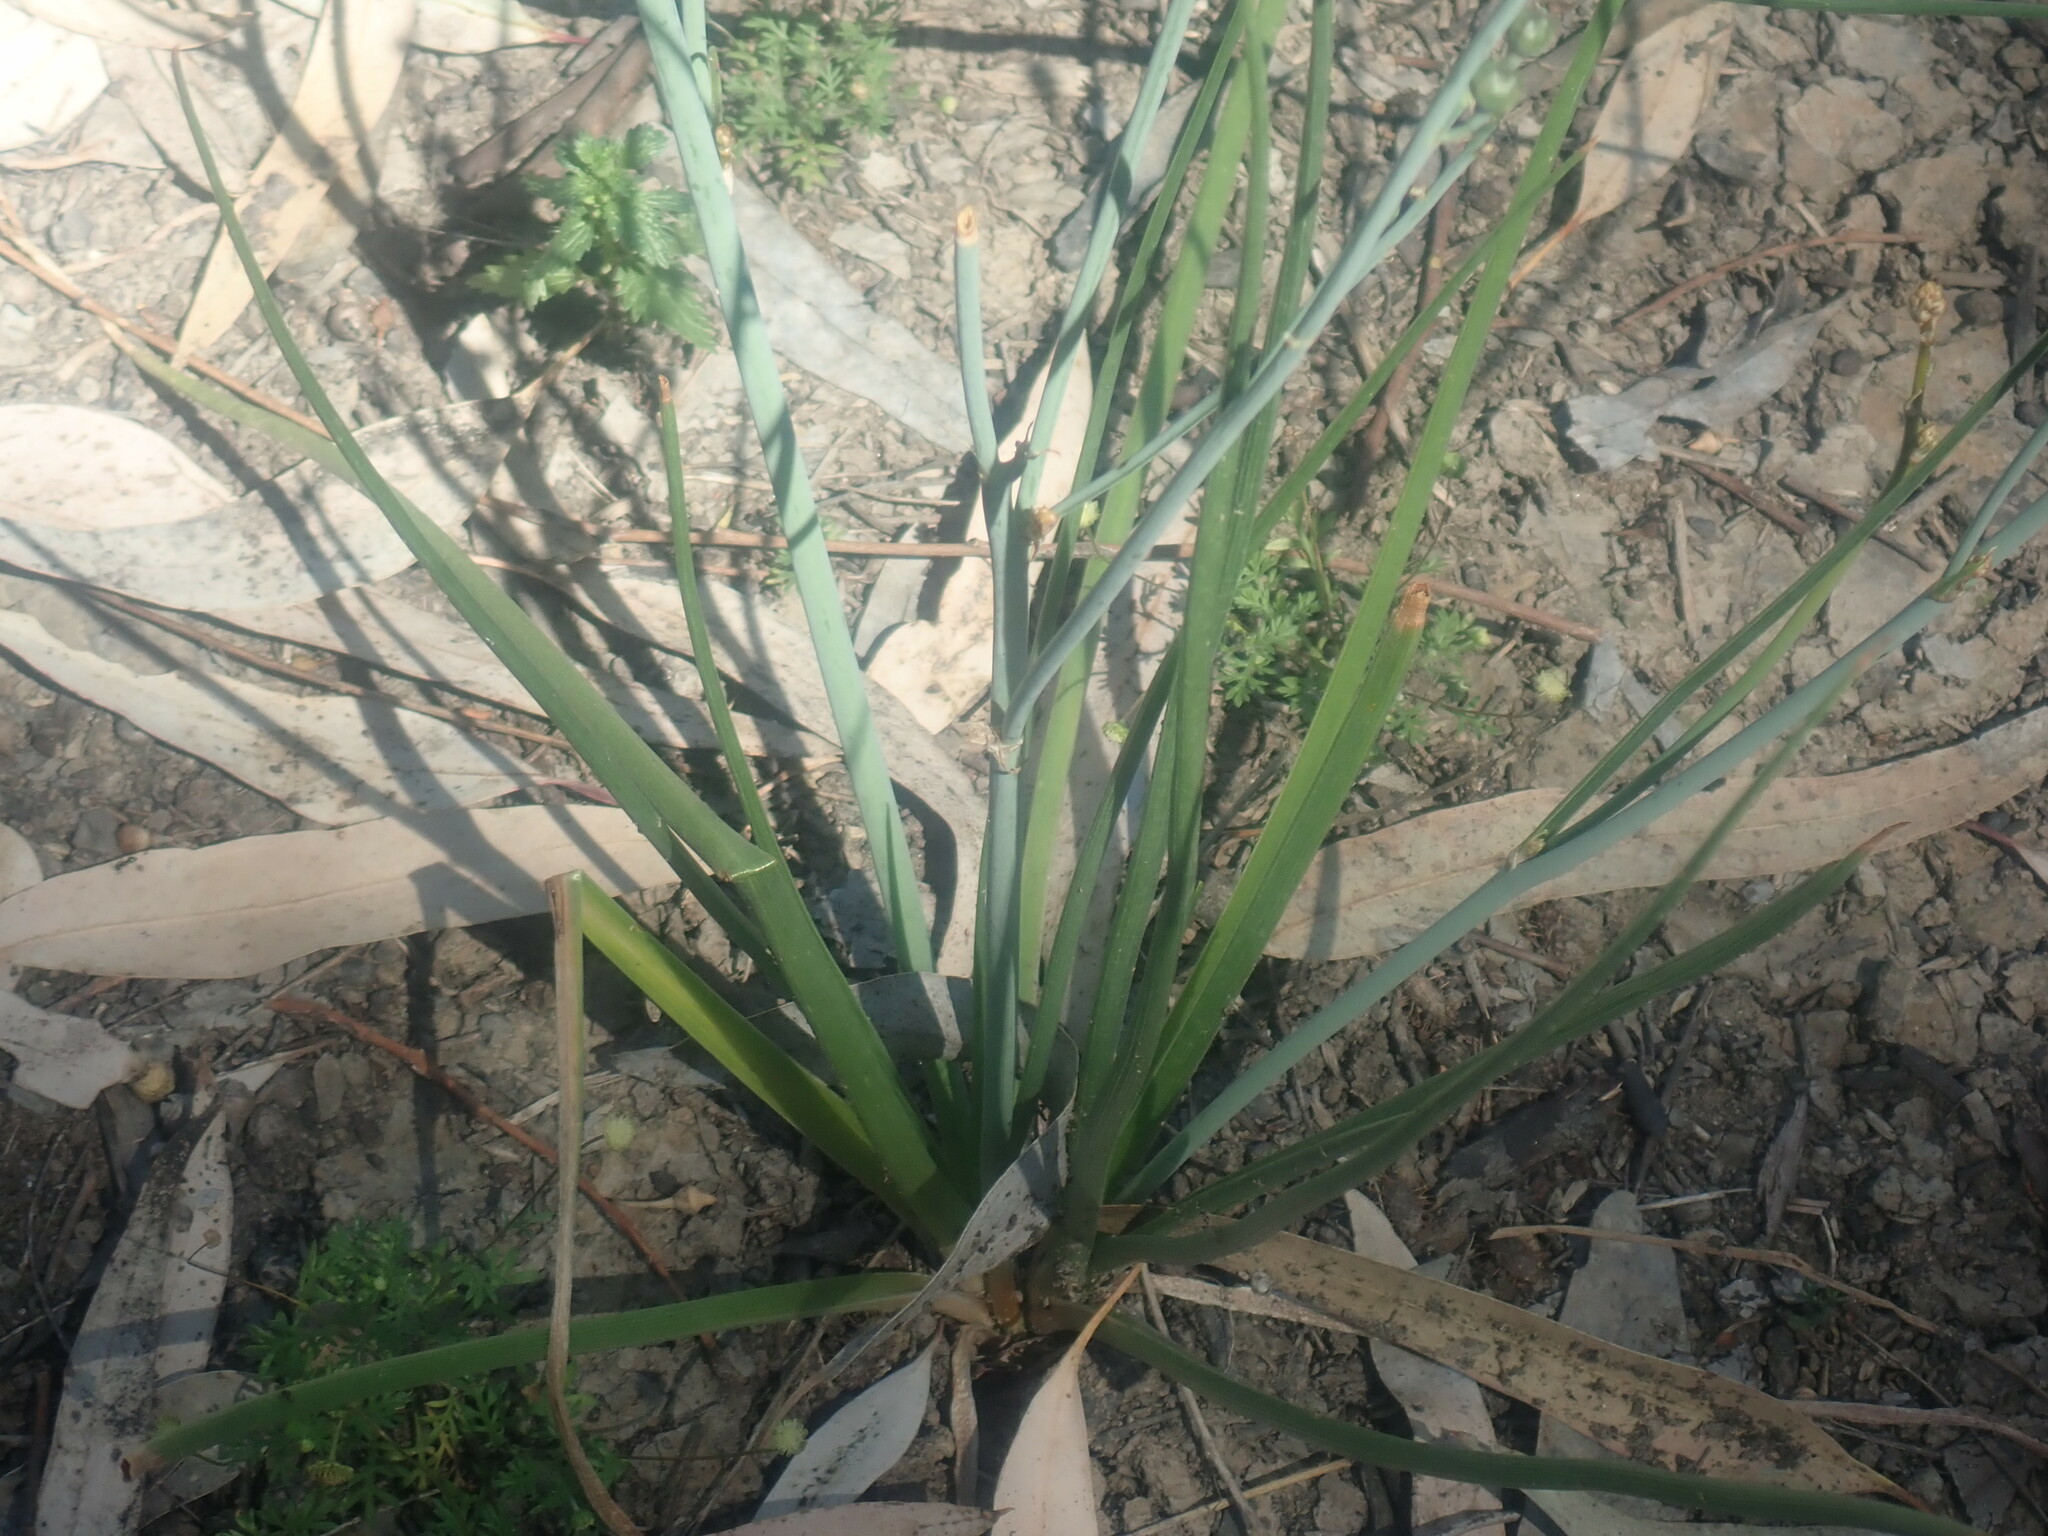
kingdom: Plantae
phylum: Tracheophyta
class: Liliopsida
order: Asparagales
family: Asphodelaceae
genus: Asphodelus
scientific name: Asphodelus fistulosus
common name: Onionweed
